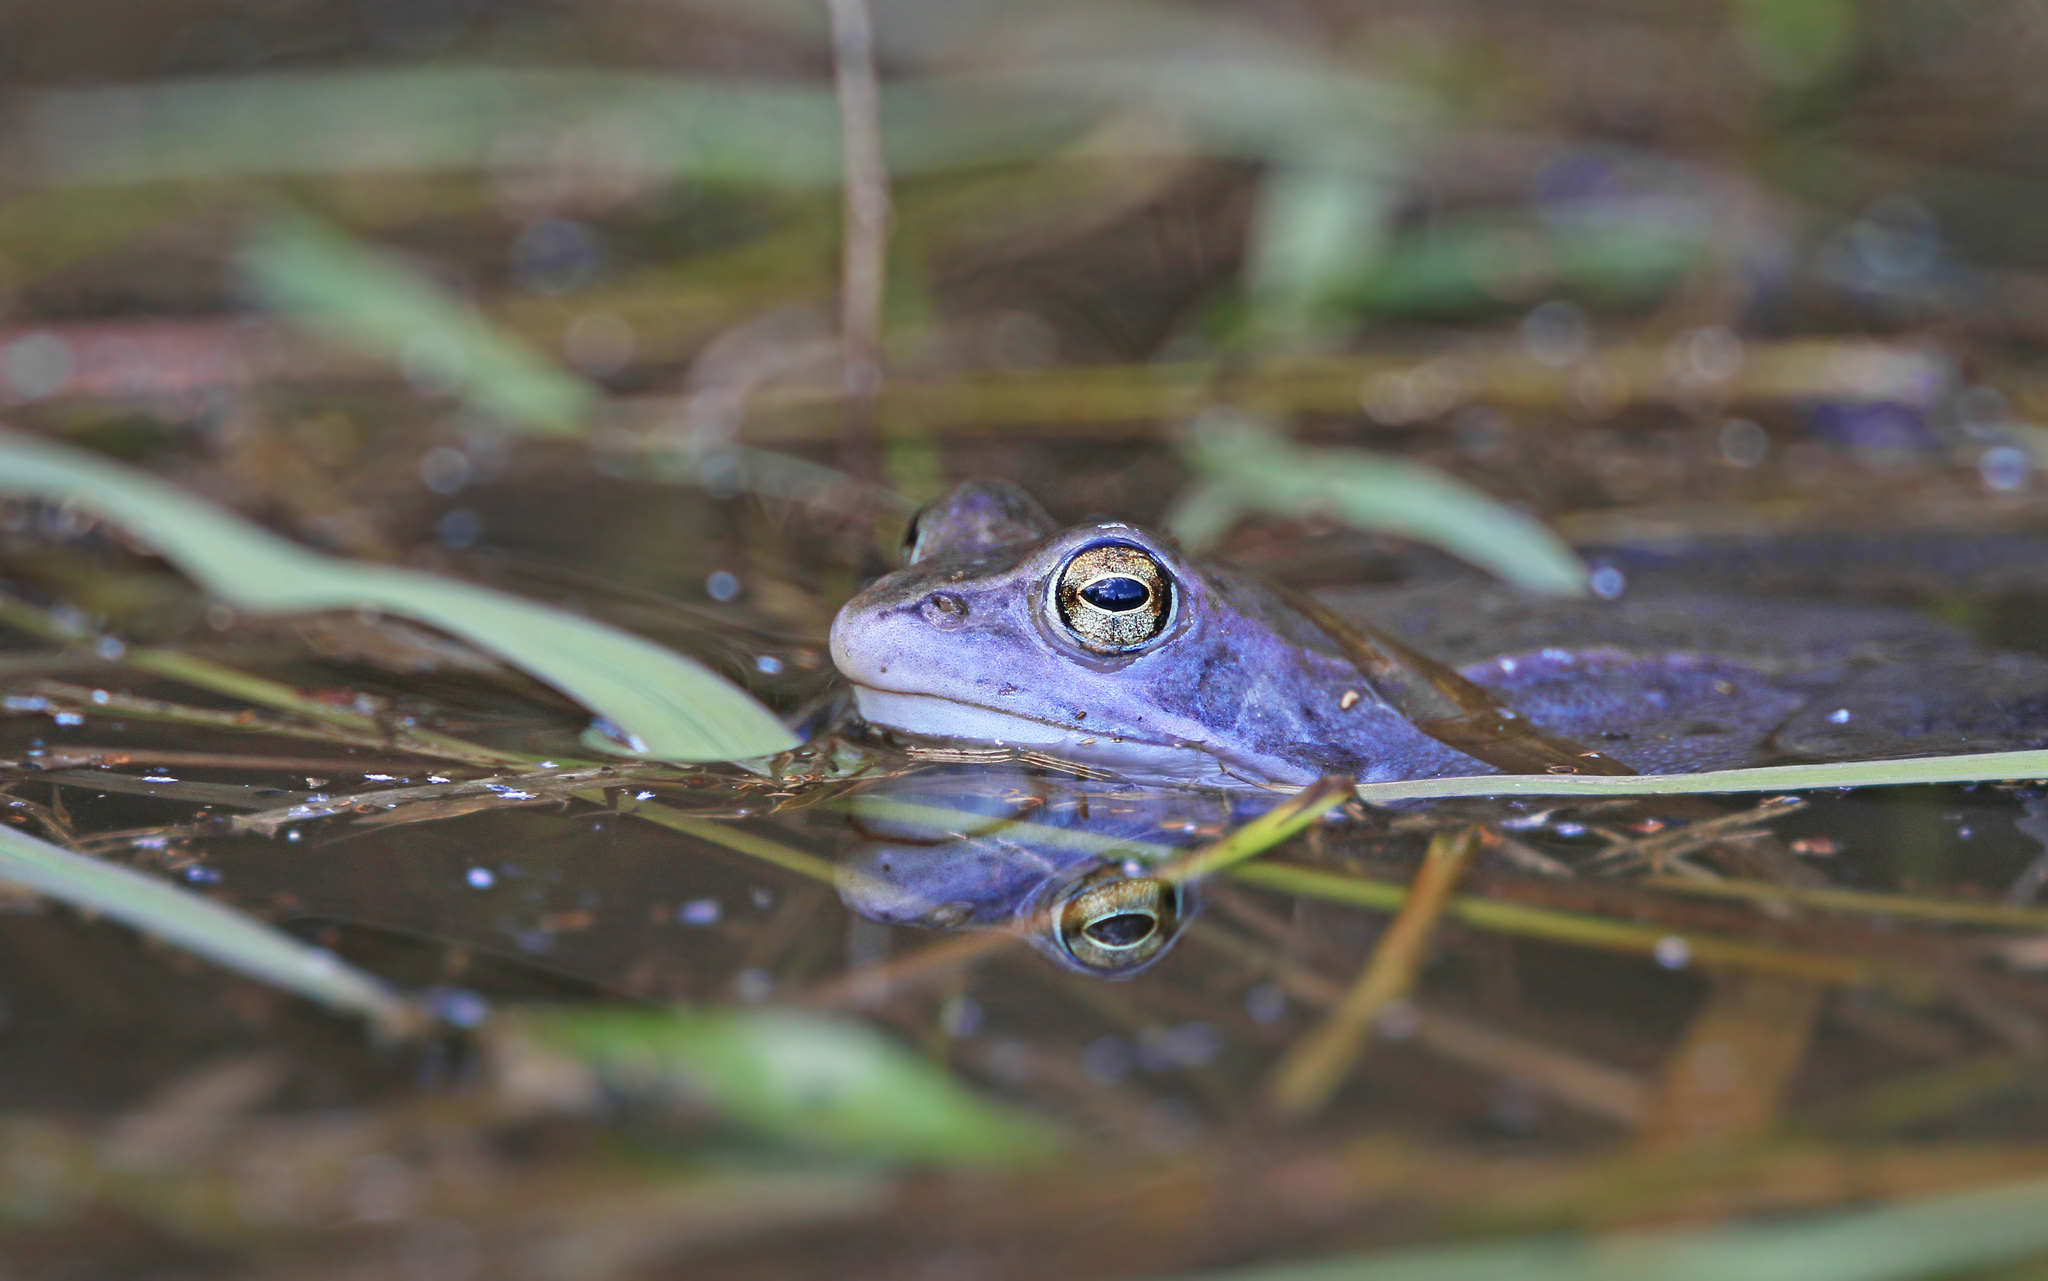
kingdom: Animalia
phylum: Chordata
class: Amphibia
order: Anura
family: Ranidae
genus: Rana
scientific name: Rana arvalis
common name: Moor frog
